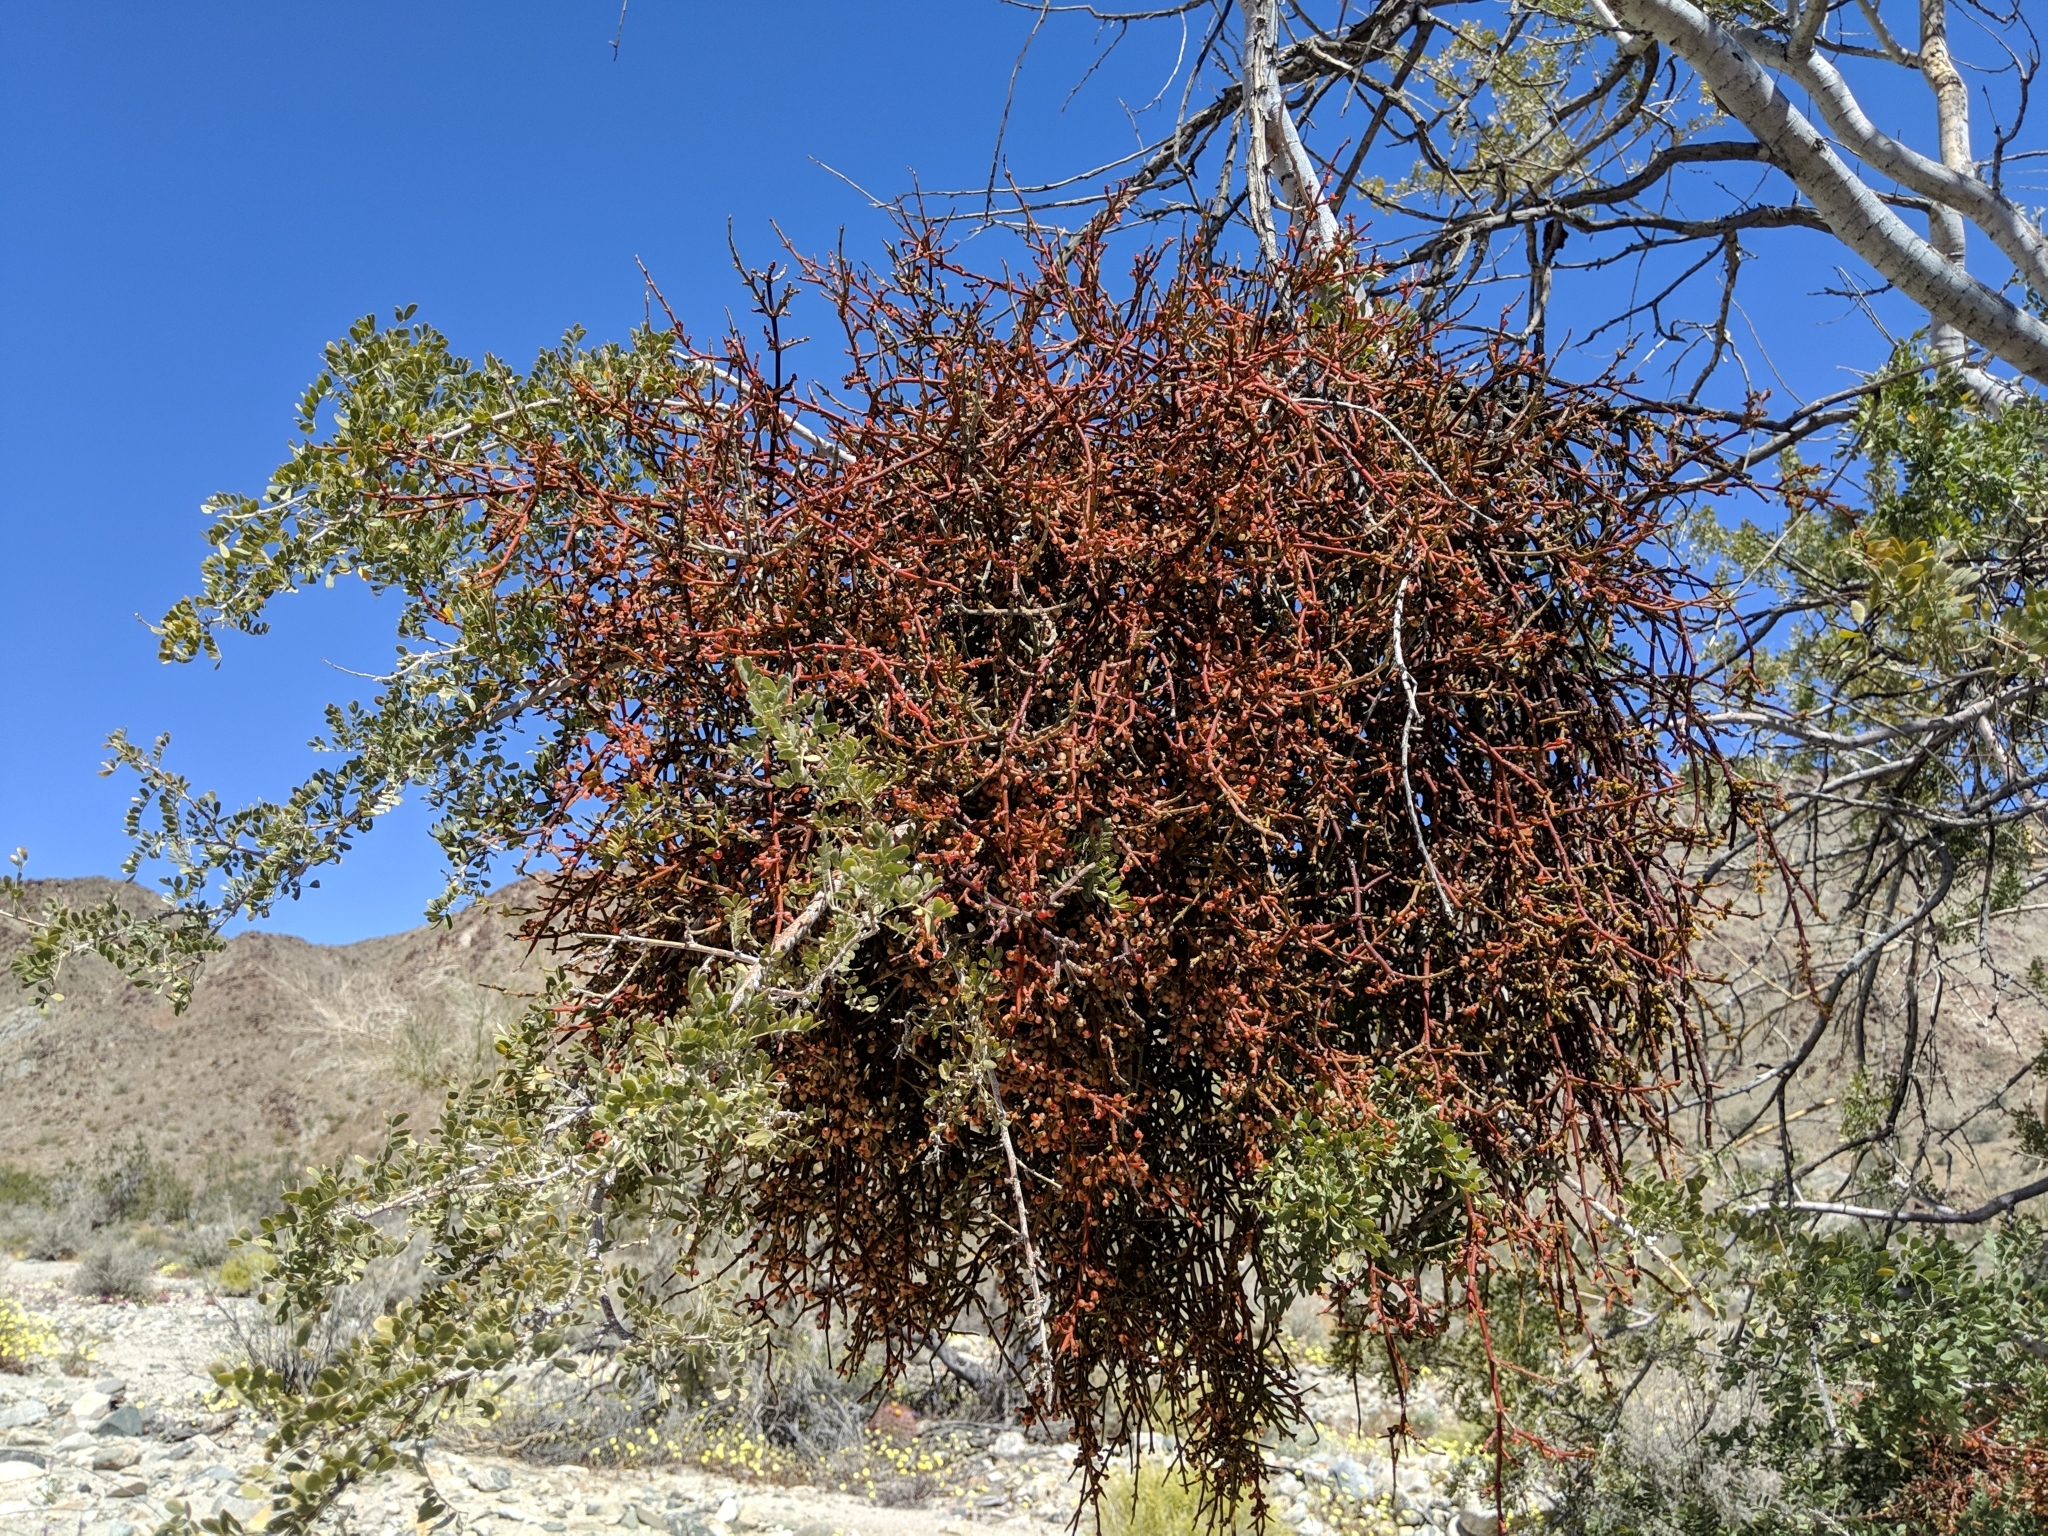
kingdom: Plantae
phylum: Tracheophyta
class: Magnoliopsida
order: Santalales
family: Viscaceae
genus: Phoradendron
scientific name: Phoradendron californicum
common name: Acacia mistletoe
